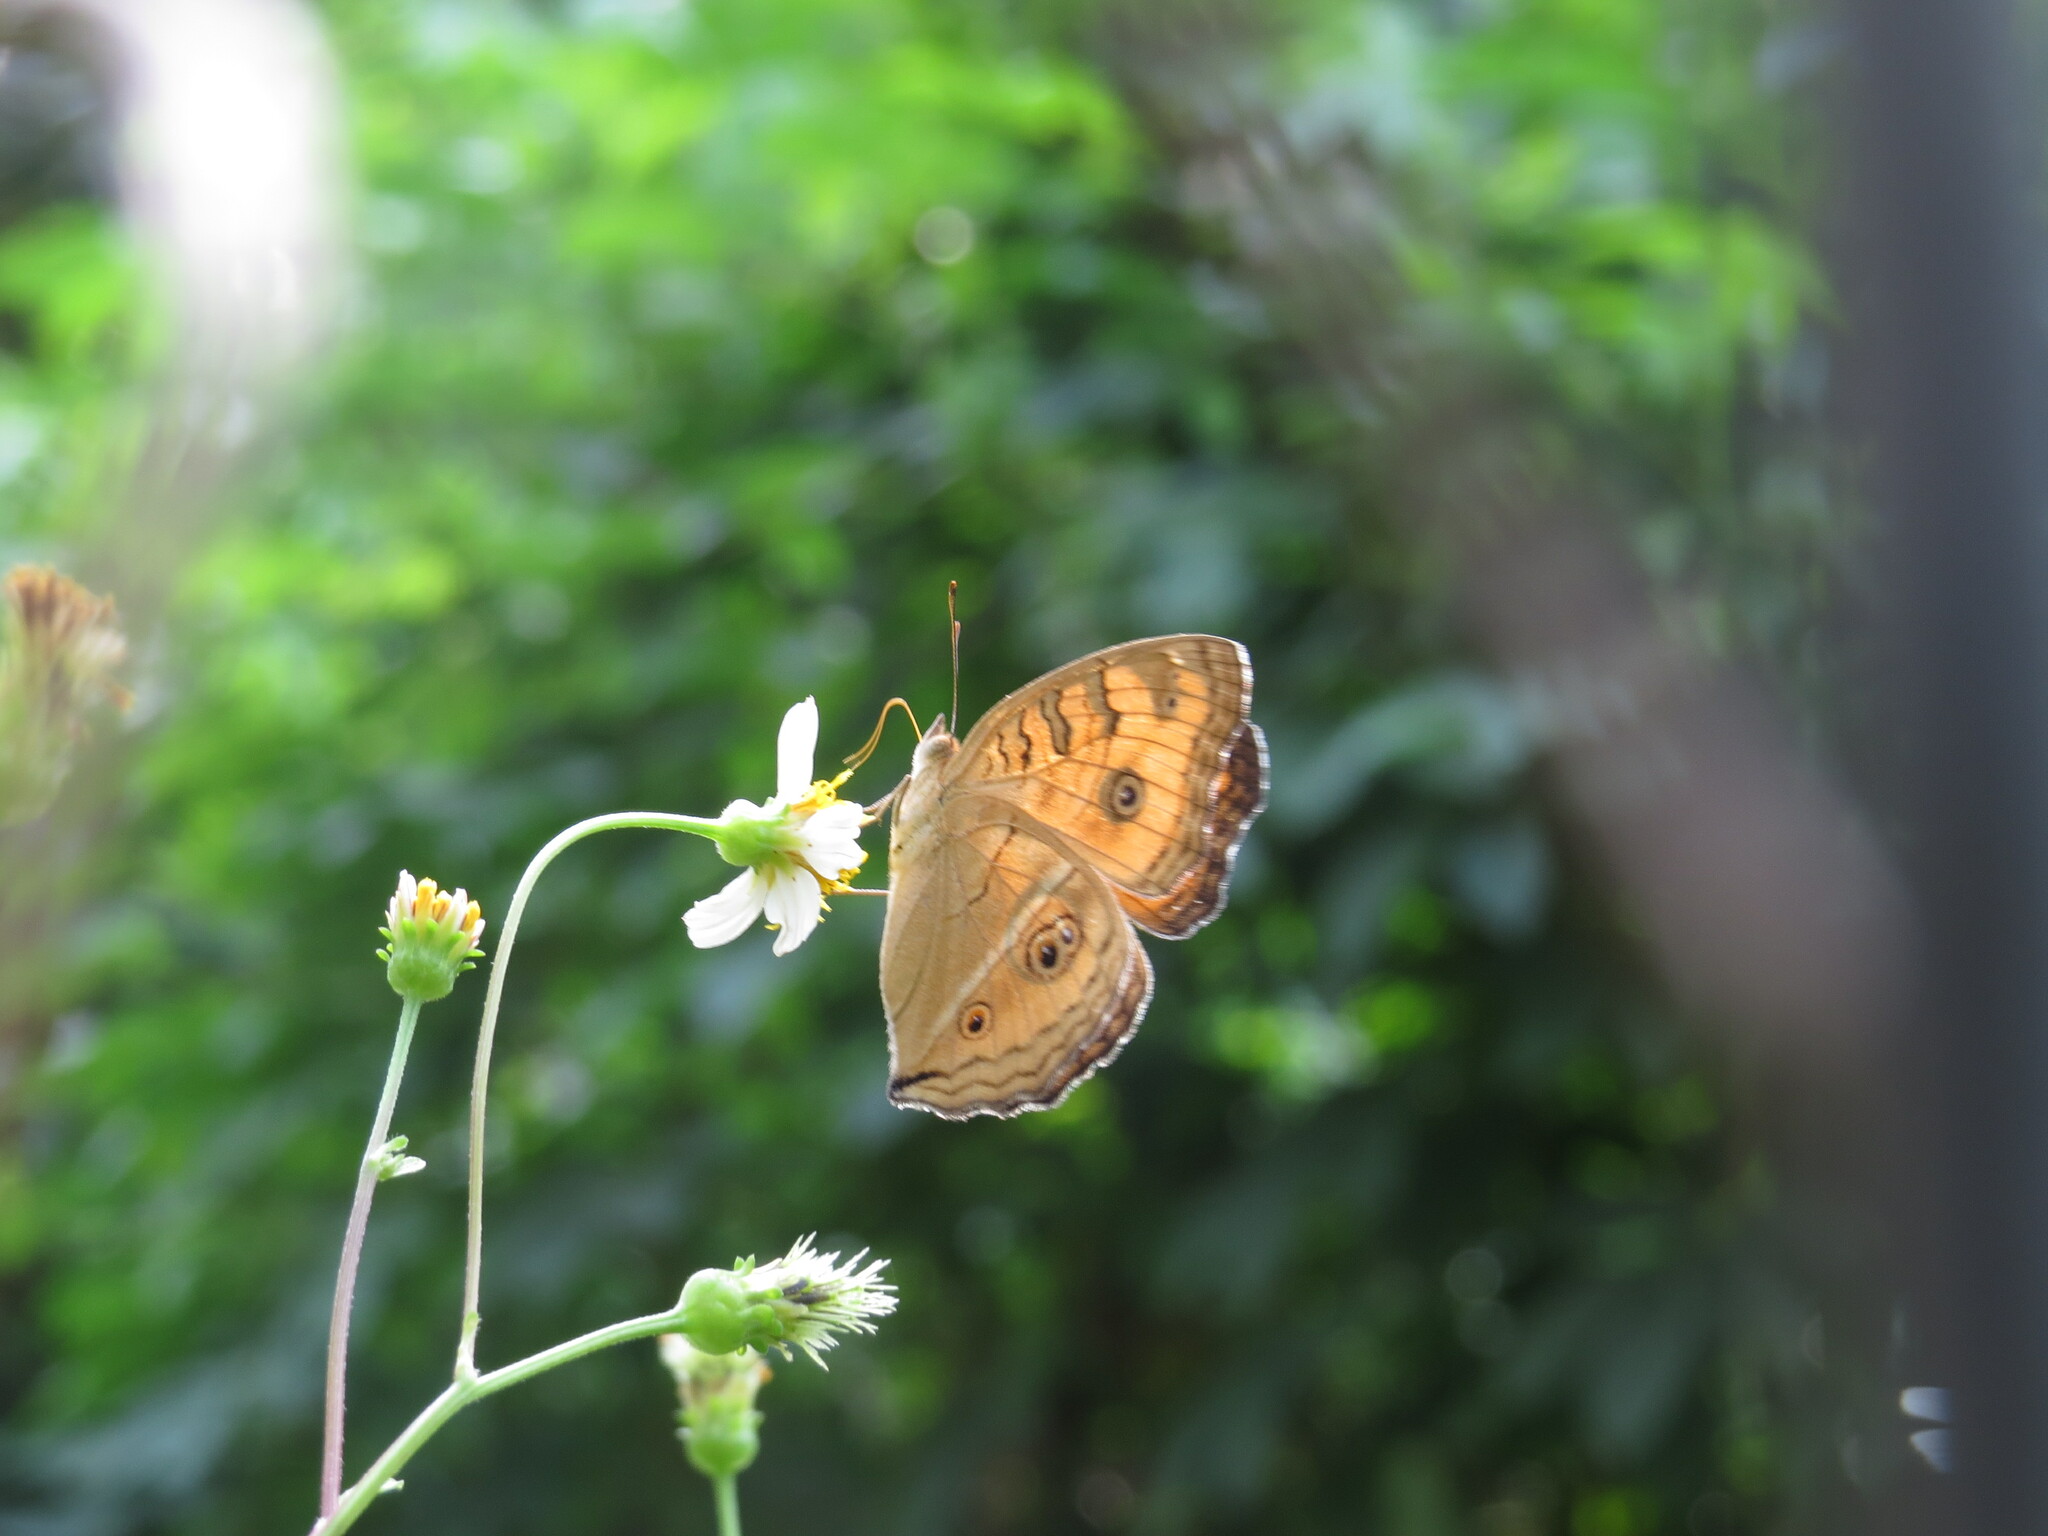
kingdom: Animalia
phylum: Arthropoda
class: Insecta
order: Lepidoptera
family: Nymphalidae
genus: Junonia
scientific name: Junonia almana
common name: Peacock pansy
